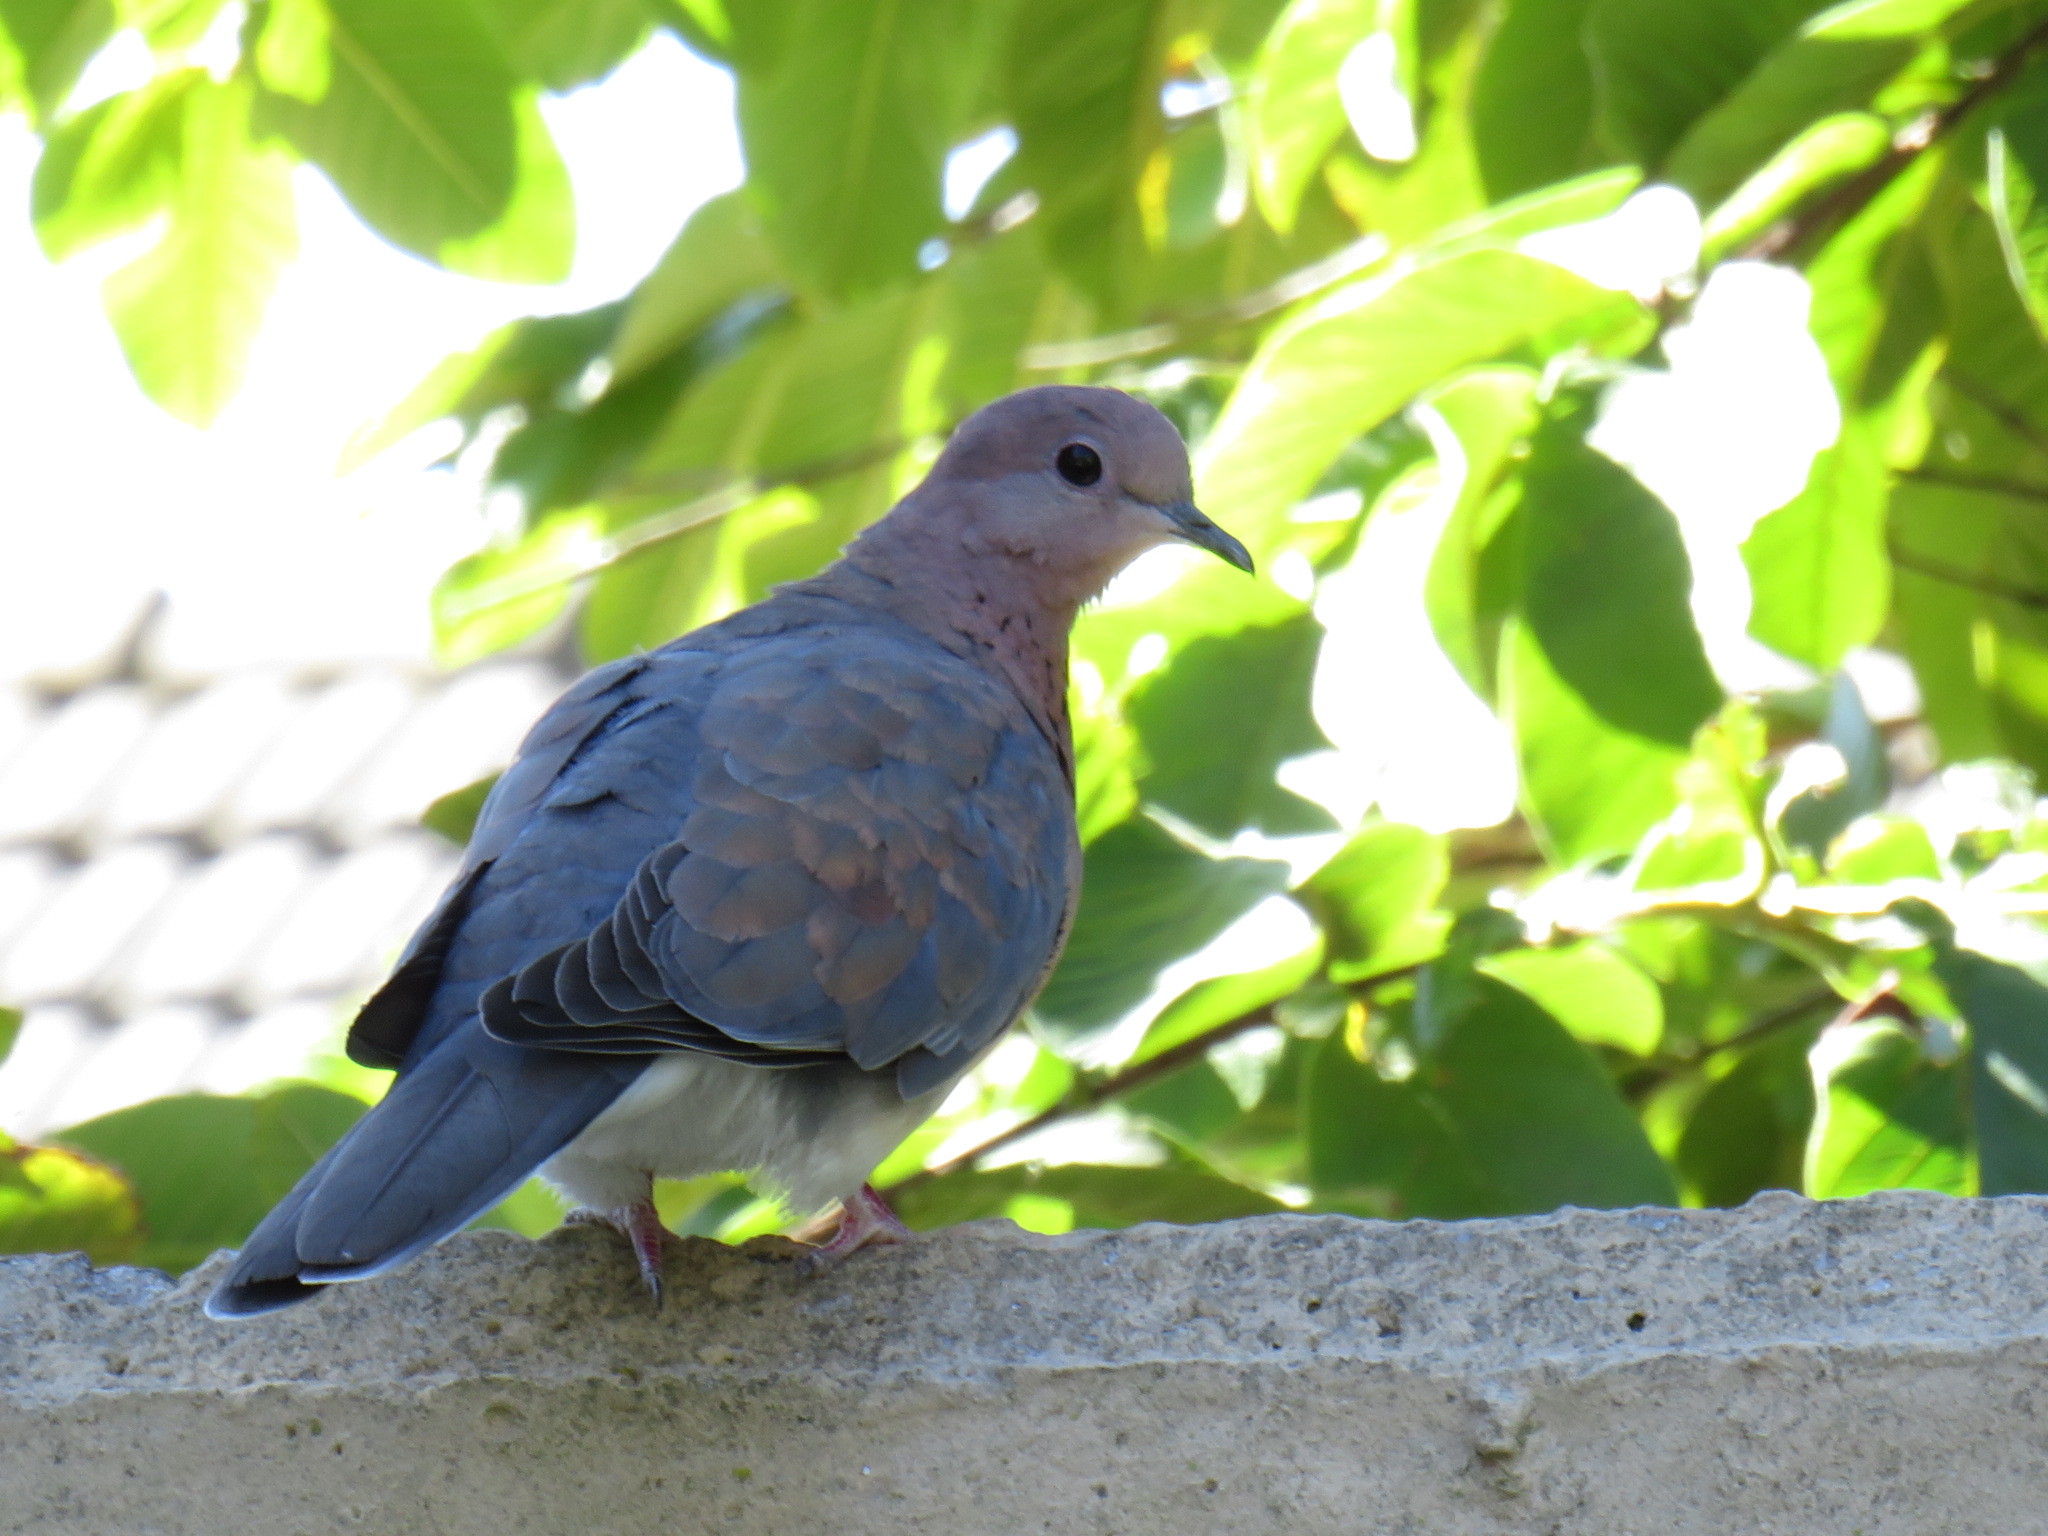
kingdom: Animalia
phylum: Chordata
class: Aves
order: Columbiformes
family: Columbidae
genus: Spilopelia
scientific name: Spilopelia senegalensis
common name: Laughing dove
